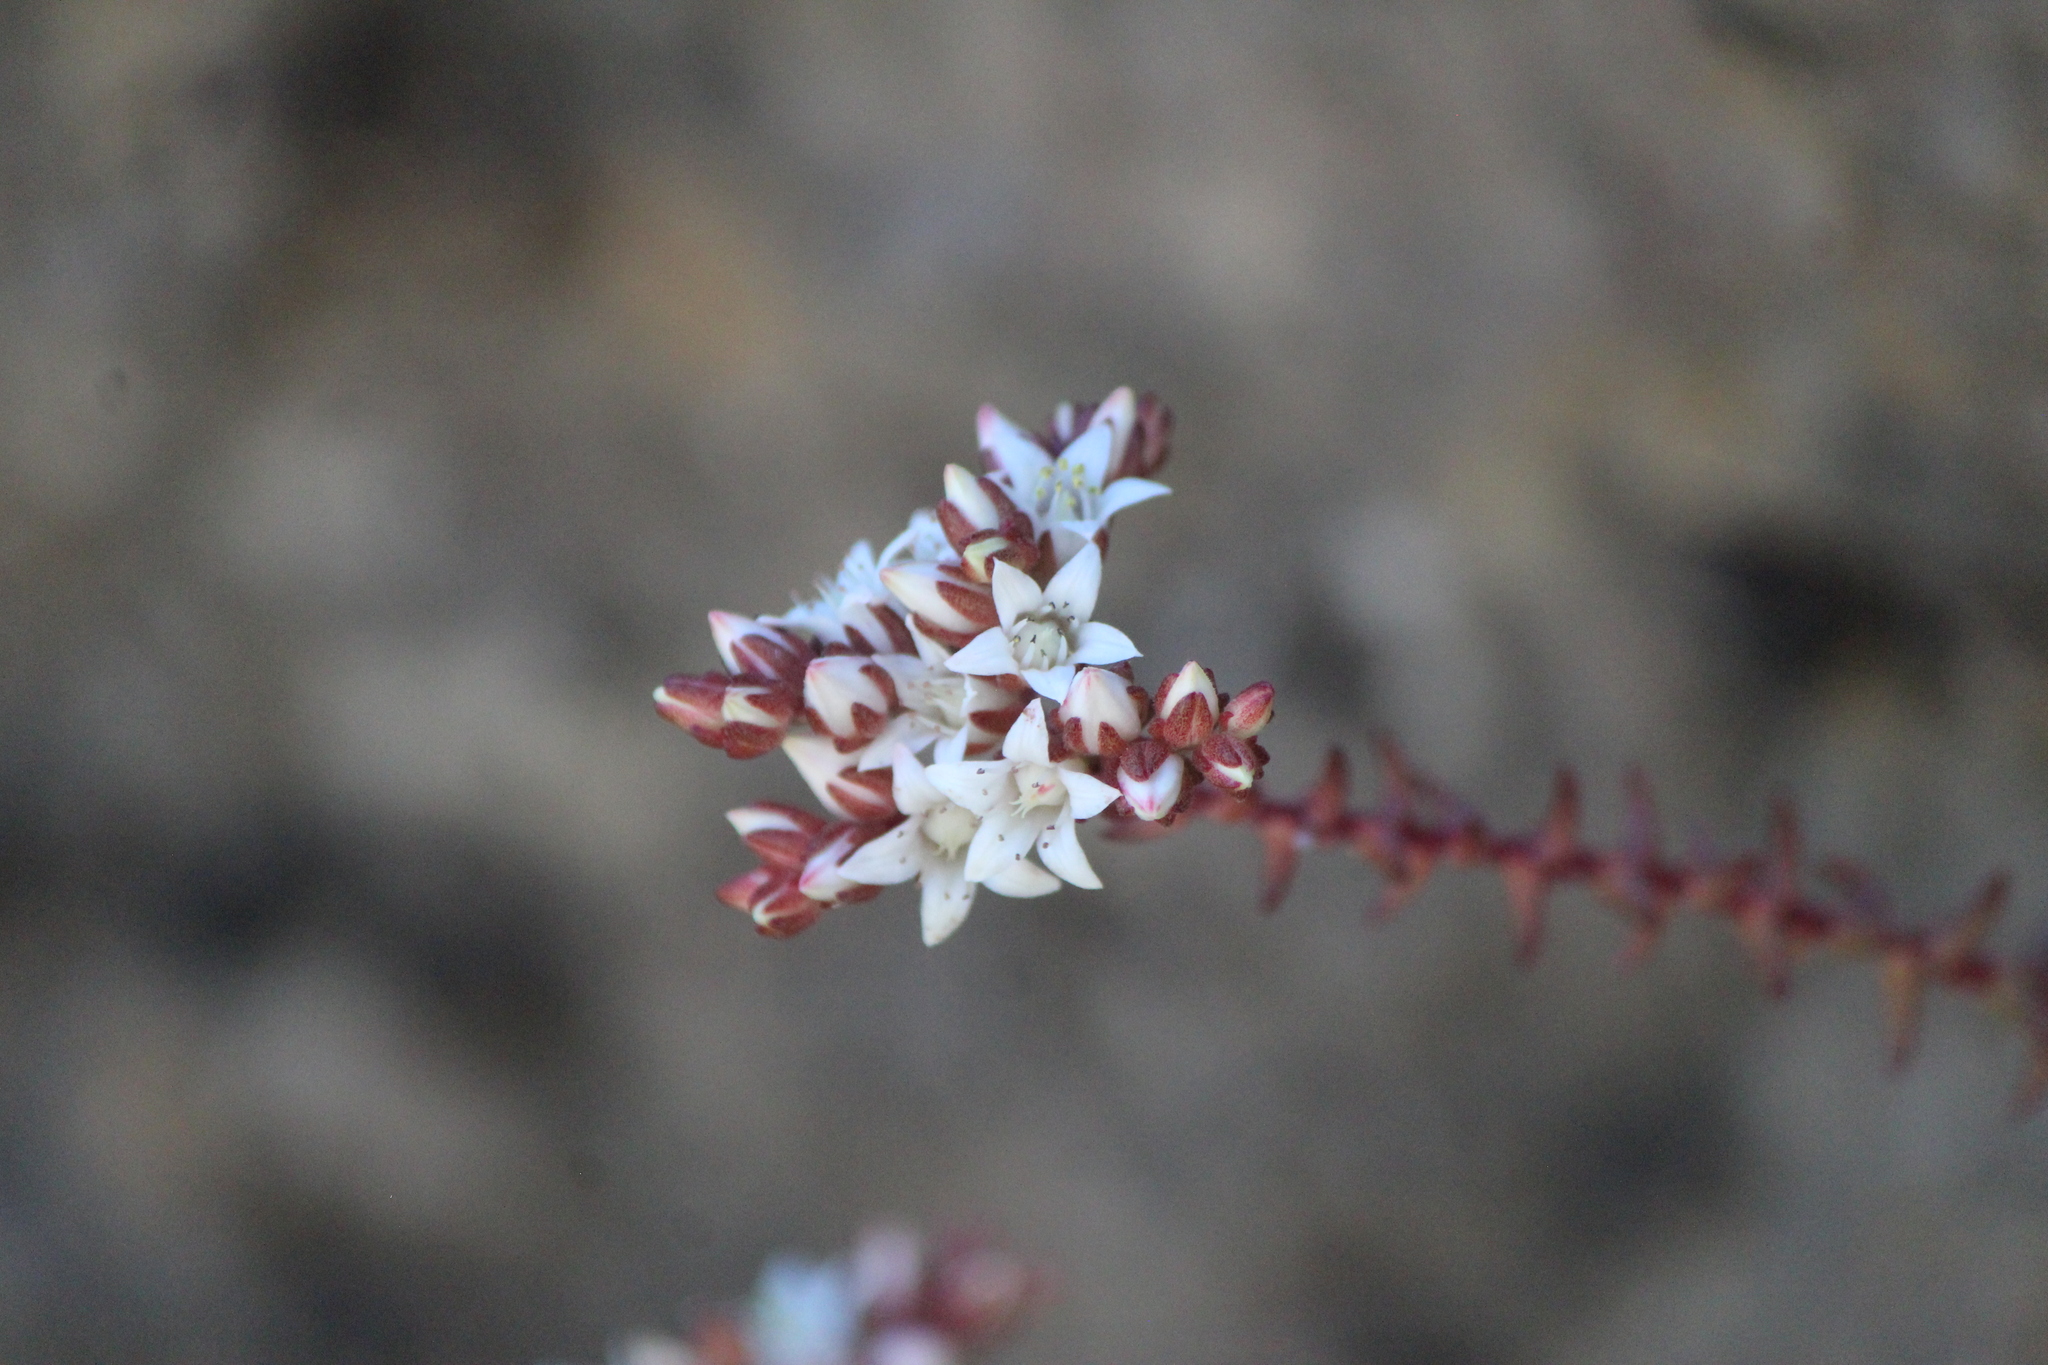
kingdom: Plantae
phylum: Tracheophyta
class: Magnoliopsida
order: Saxifragales
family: Crassulaceae
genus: Sedum
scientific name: Sedum jurgensenii
